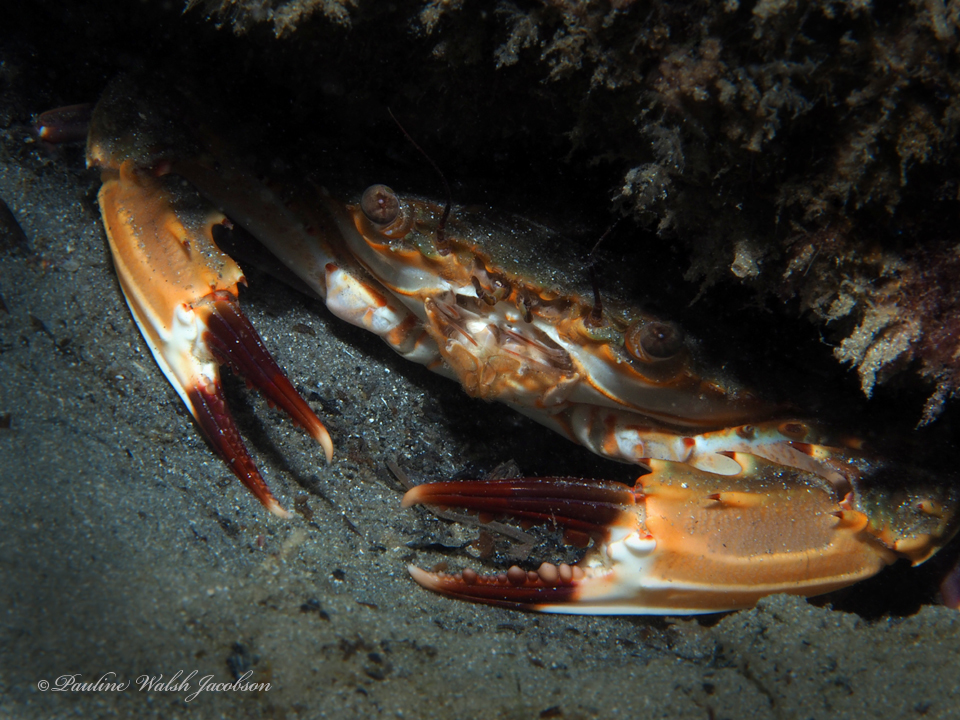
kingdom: Animalia
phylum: Arthropoda
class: Malacostraca
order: Decapoda
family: Portunidae
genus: Charybdis
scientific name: Charybdis hellerii
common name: Spiny hands
